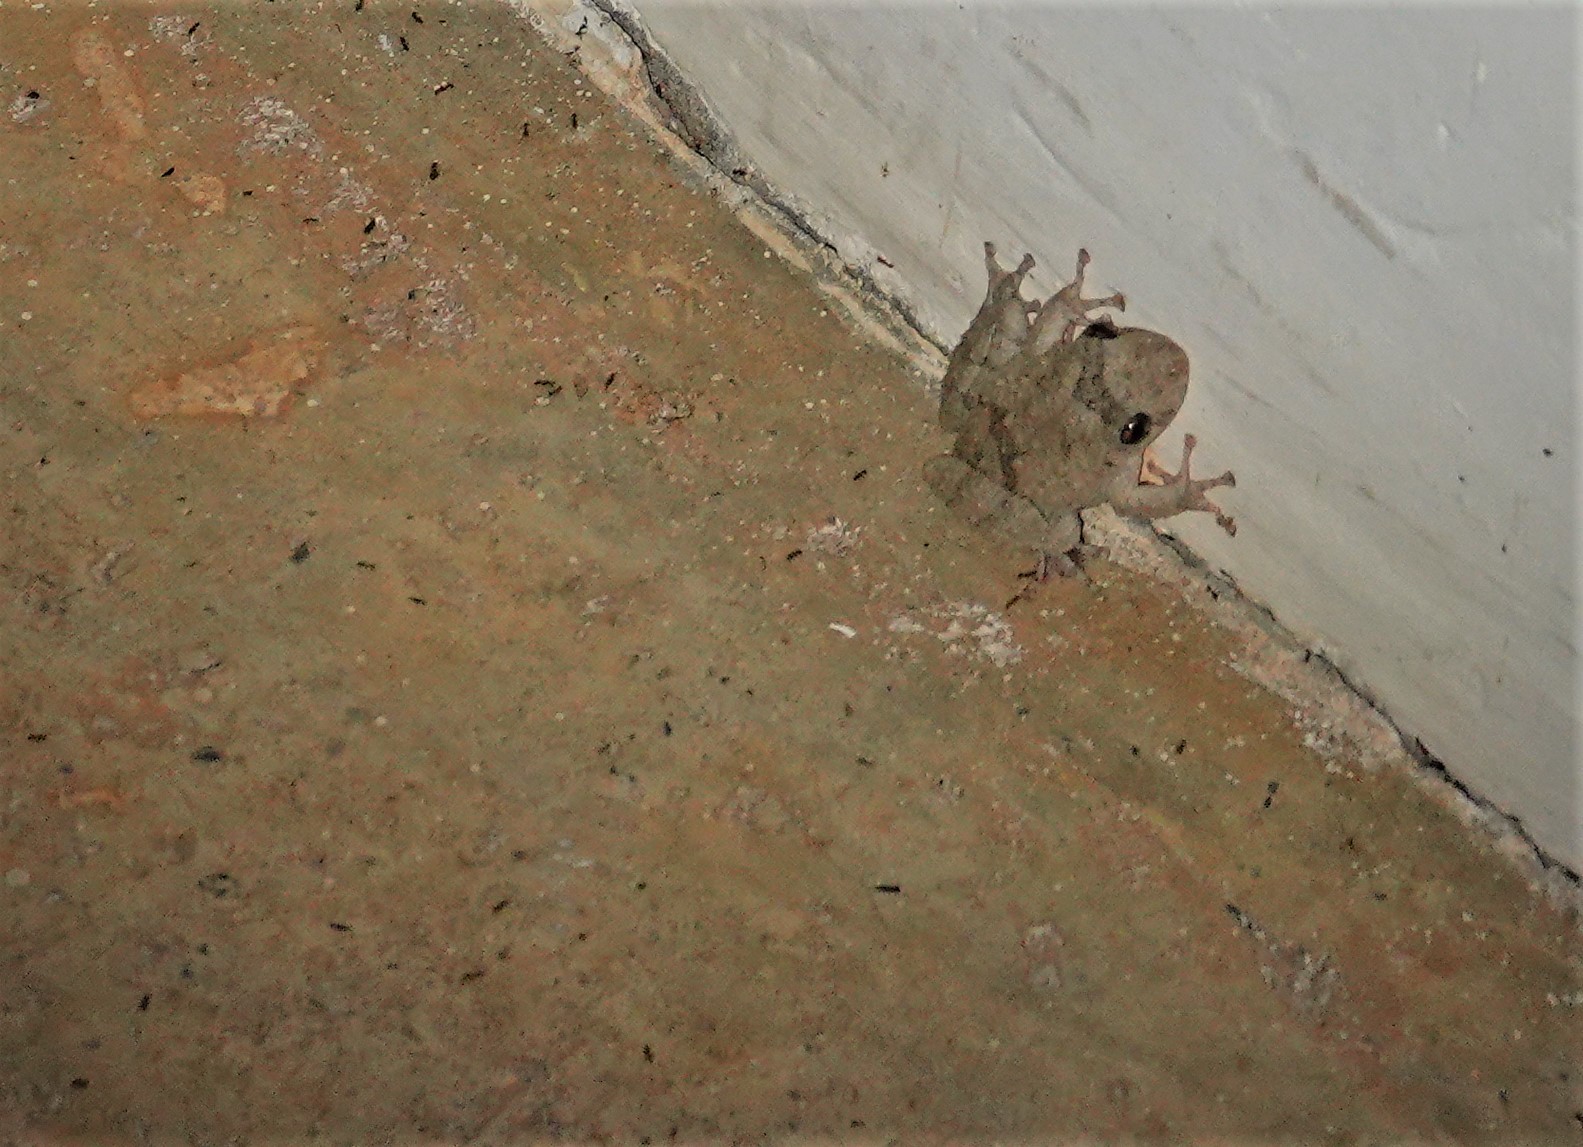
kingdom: Animalia
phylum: Chordata
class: Amphibia
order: Anura
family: Hylidae
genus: Scinax
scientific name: Scinax acuminatus
